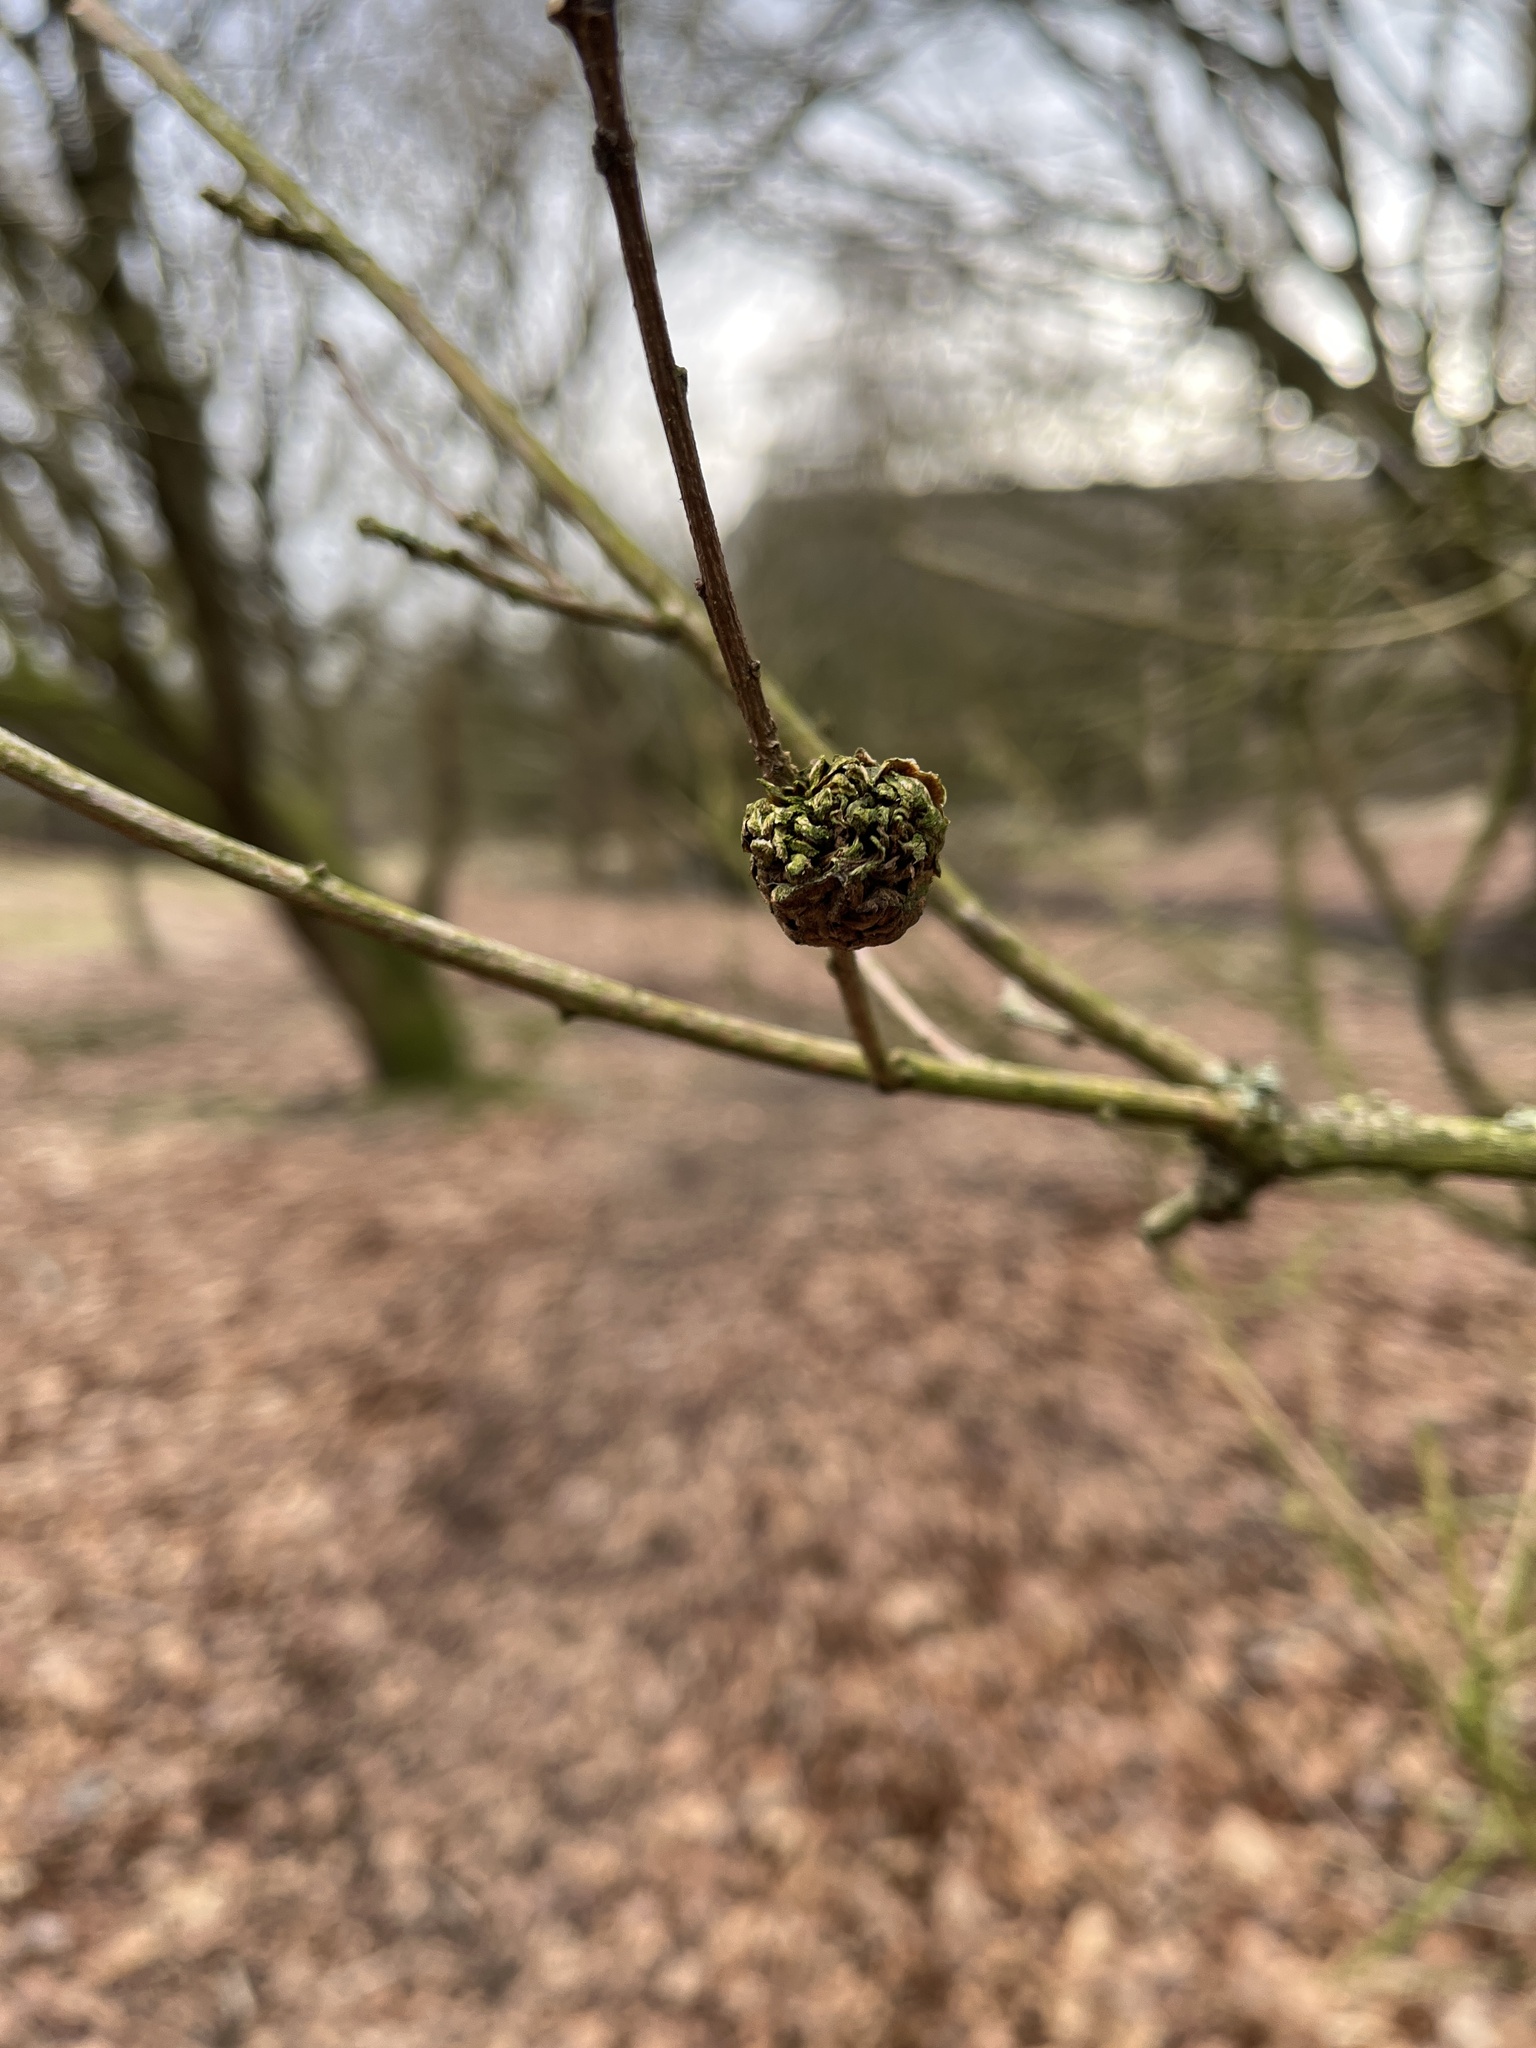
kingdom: Animalia
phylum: Arthropoda
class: Insecta
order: Hymenoptera
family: Cynipidae
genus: Andricus
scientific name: Andricus foecundatrix
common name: Artichoke gall
